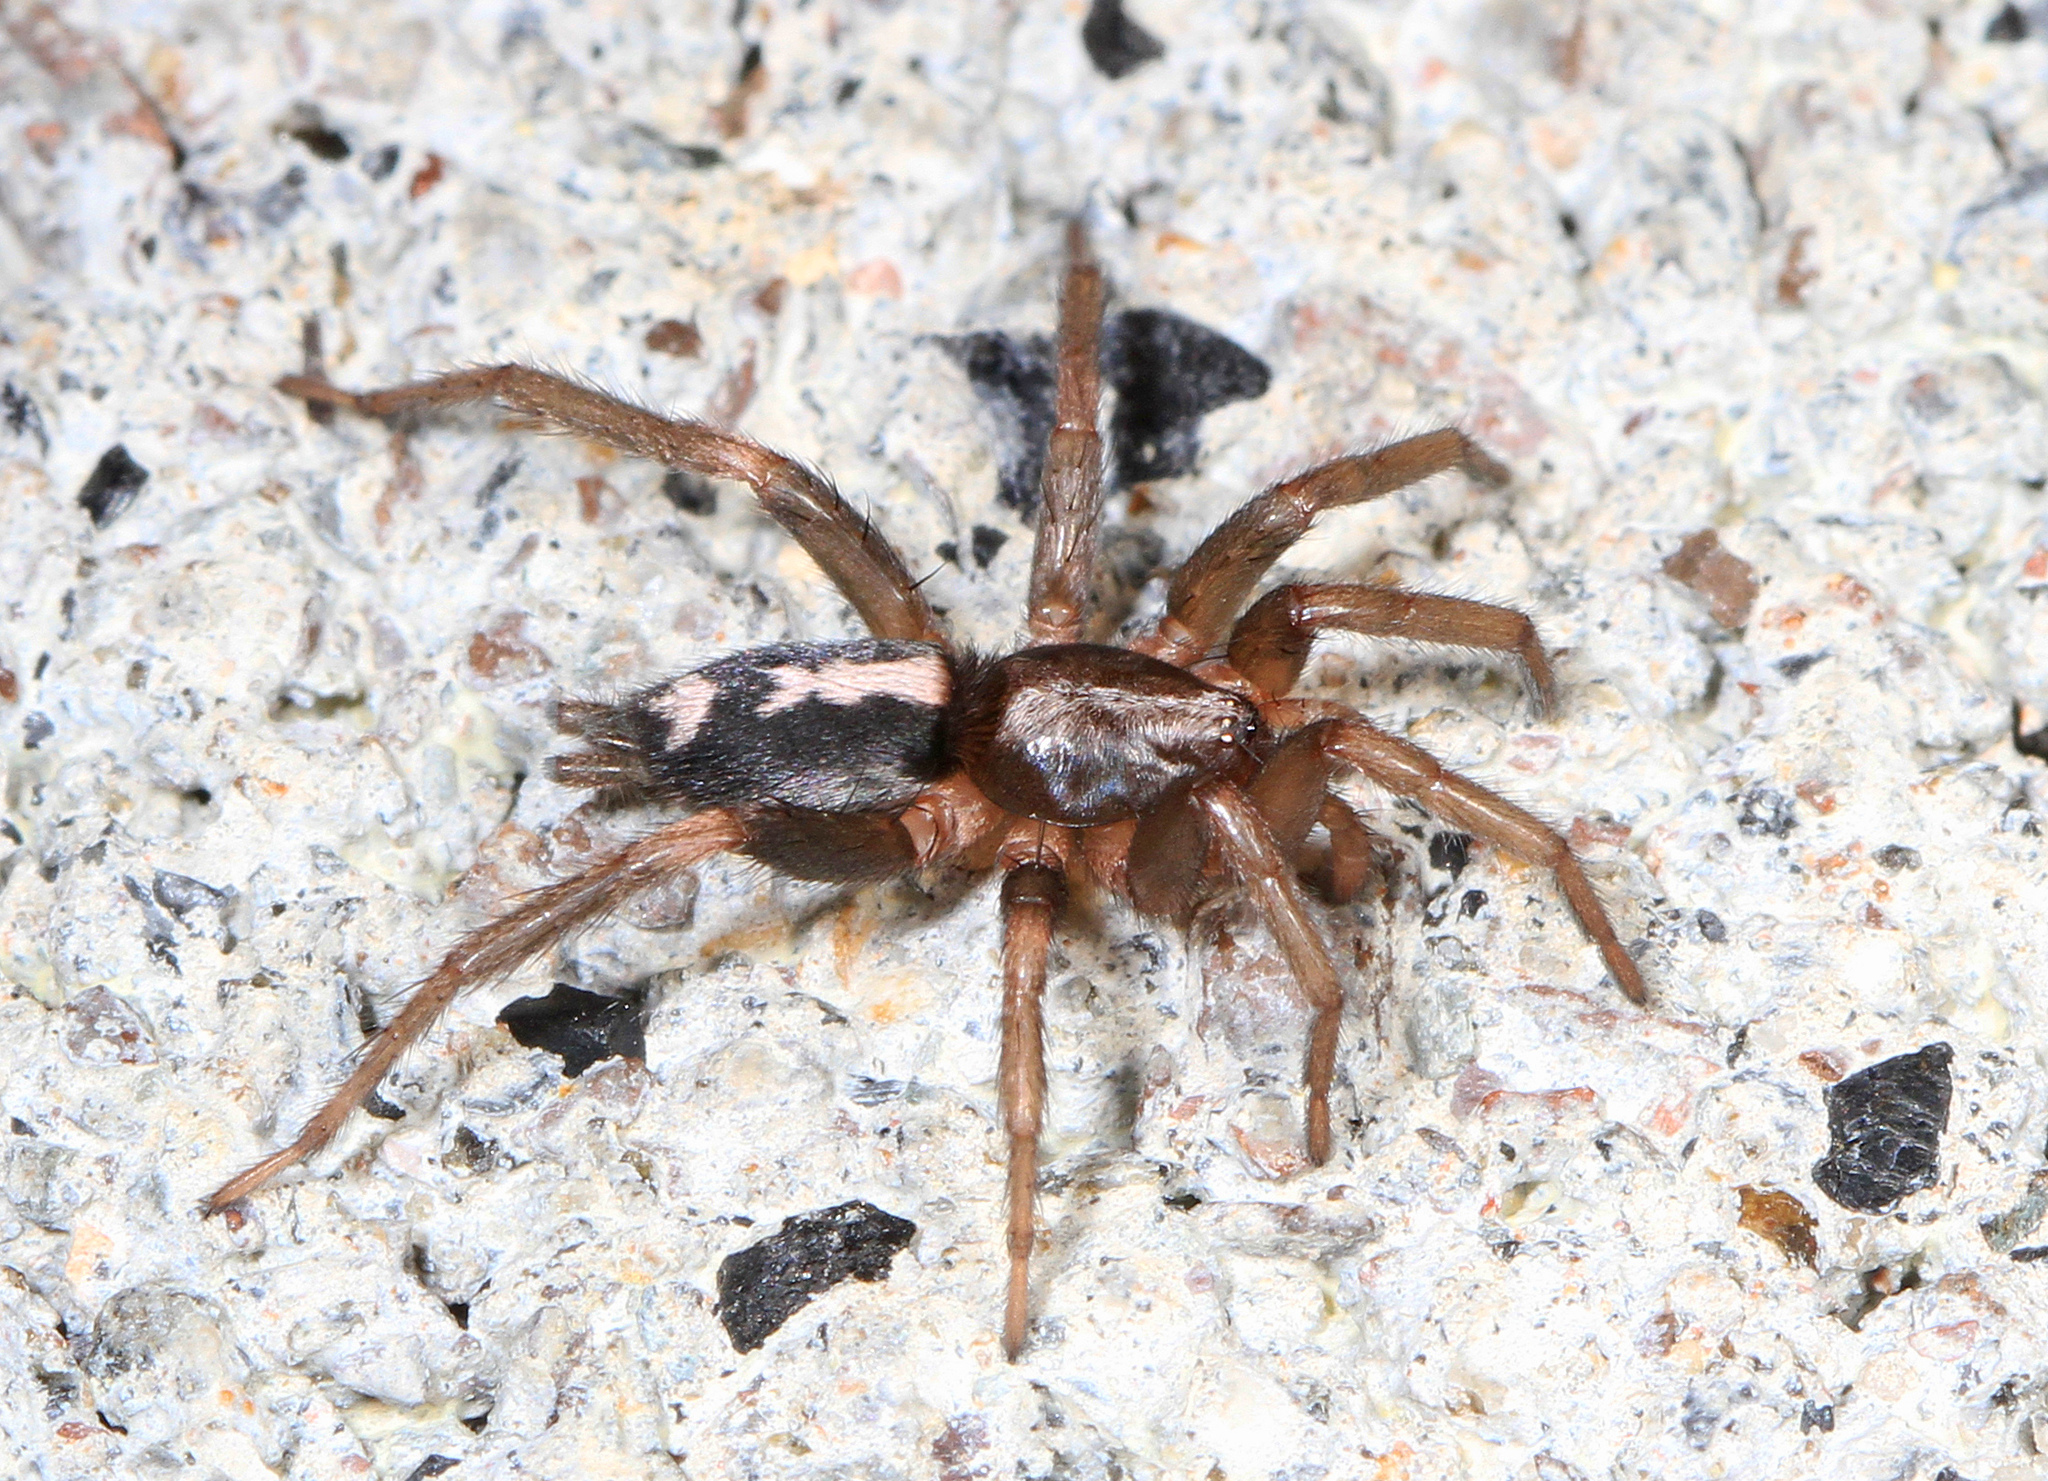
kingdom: Animalia
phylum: Arthropoda
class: Arachnida
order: Araneae
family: Gnaphosidae
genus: Herpyllus
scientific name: Herpyllus ecclesiasticus
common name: Eastern parson spider
